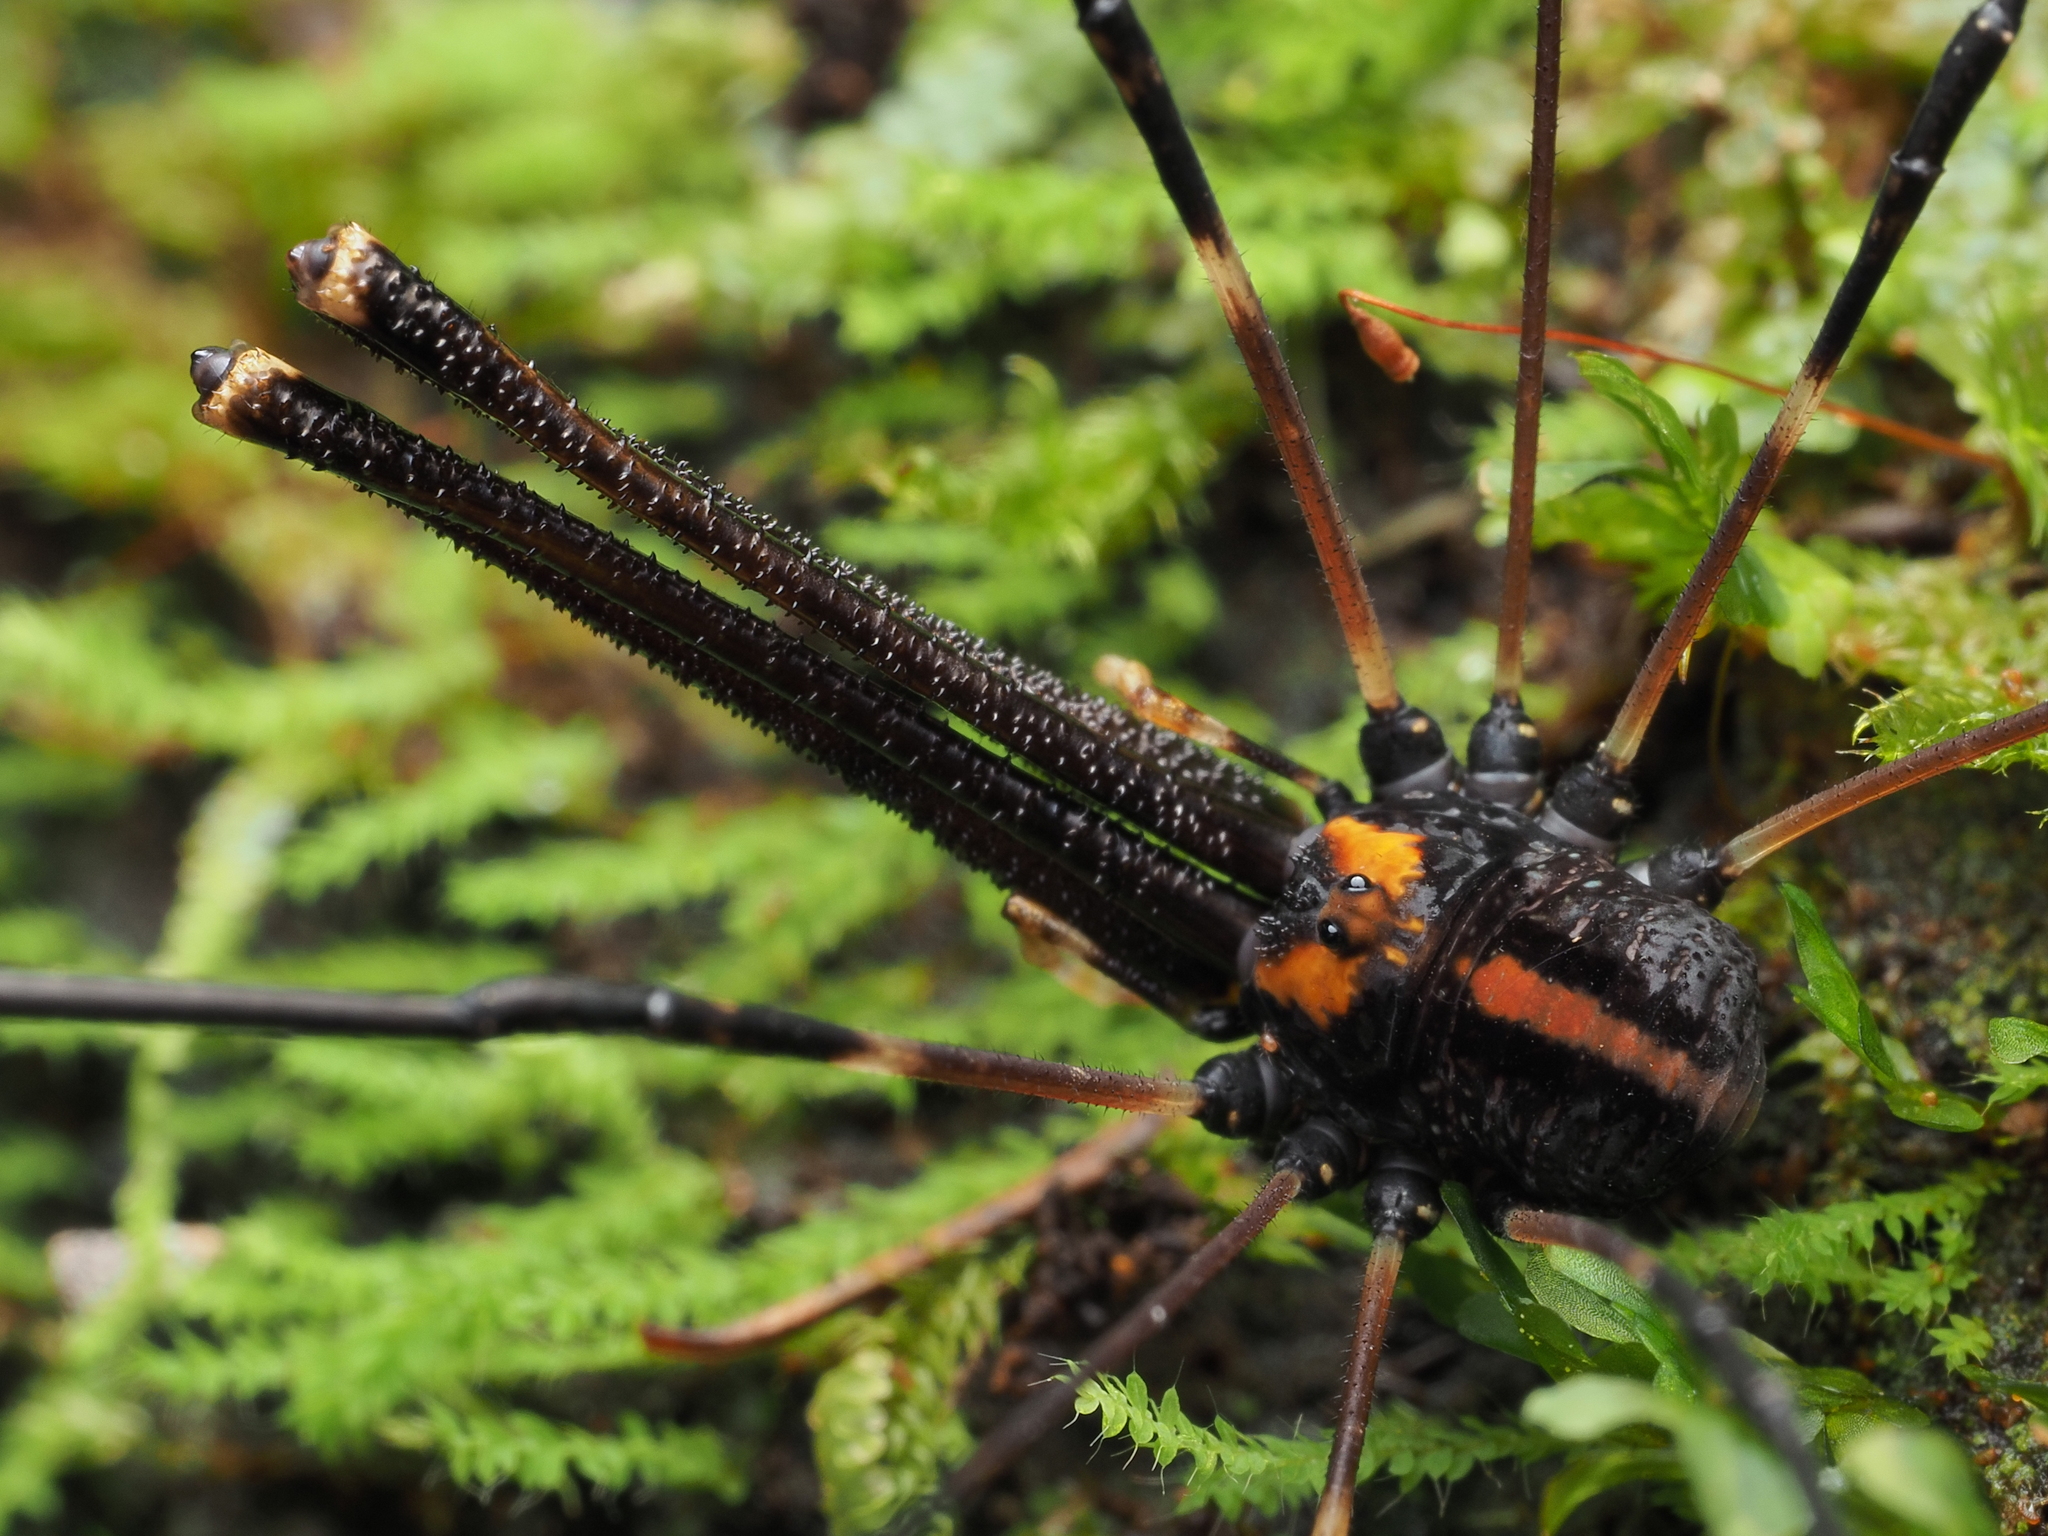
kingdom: Animalia
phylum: Arthropoda
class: Arachnida
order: Opiliones
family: Neopilionidae
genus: Forsteropsalis
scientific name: Forsteropsalis pureora
